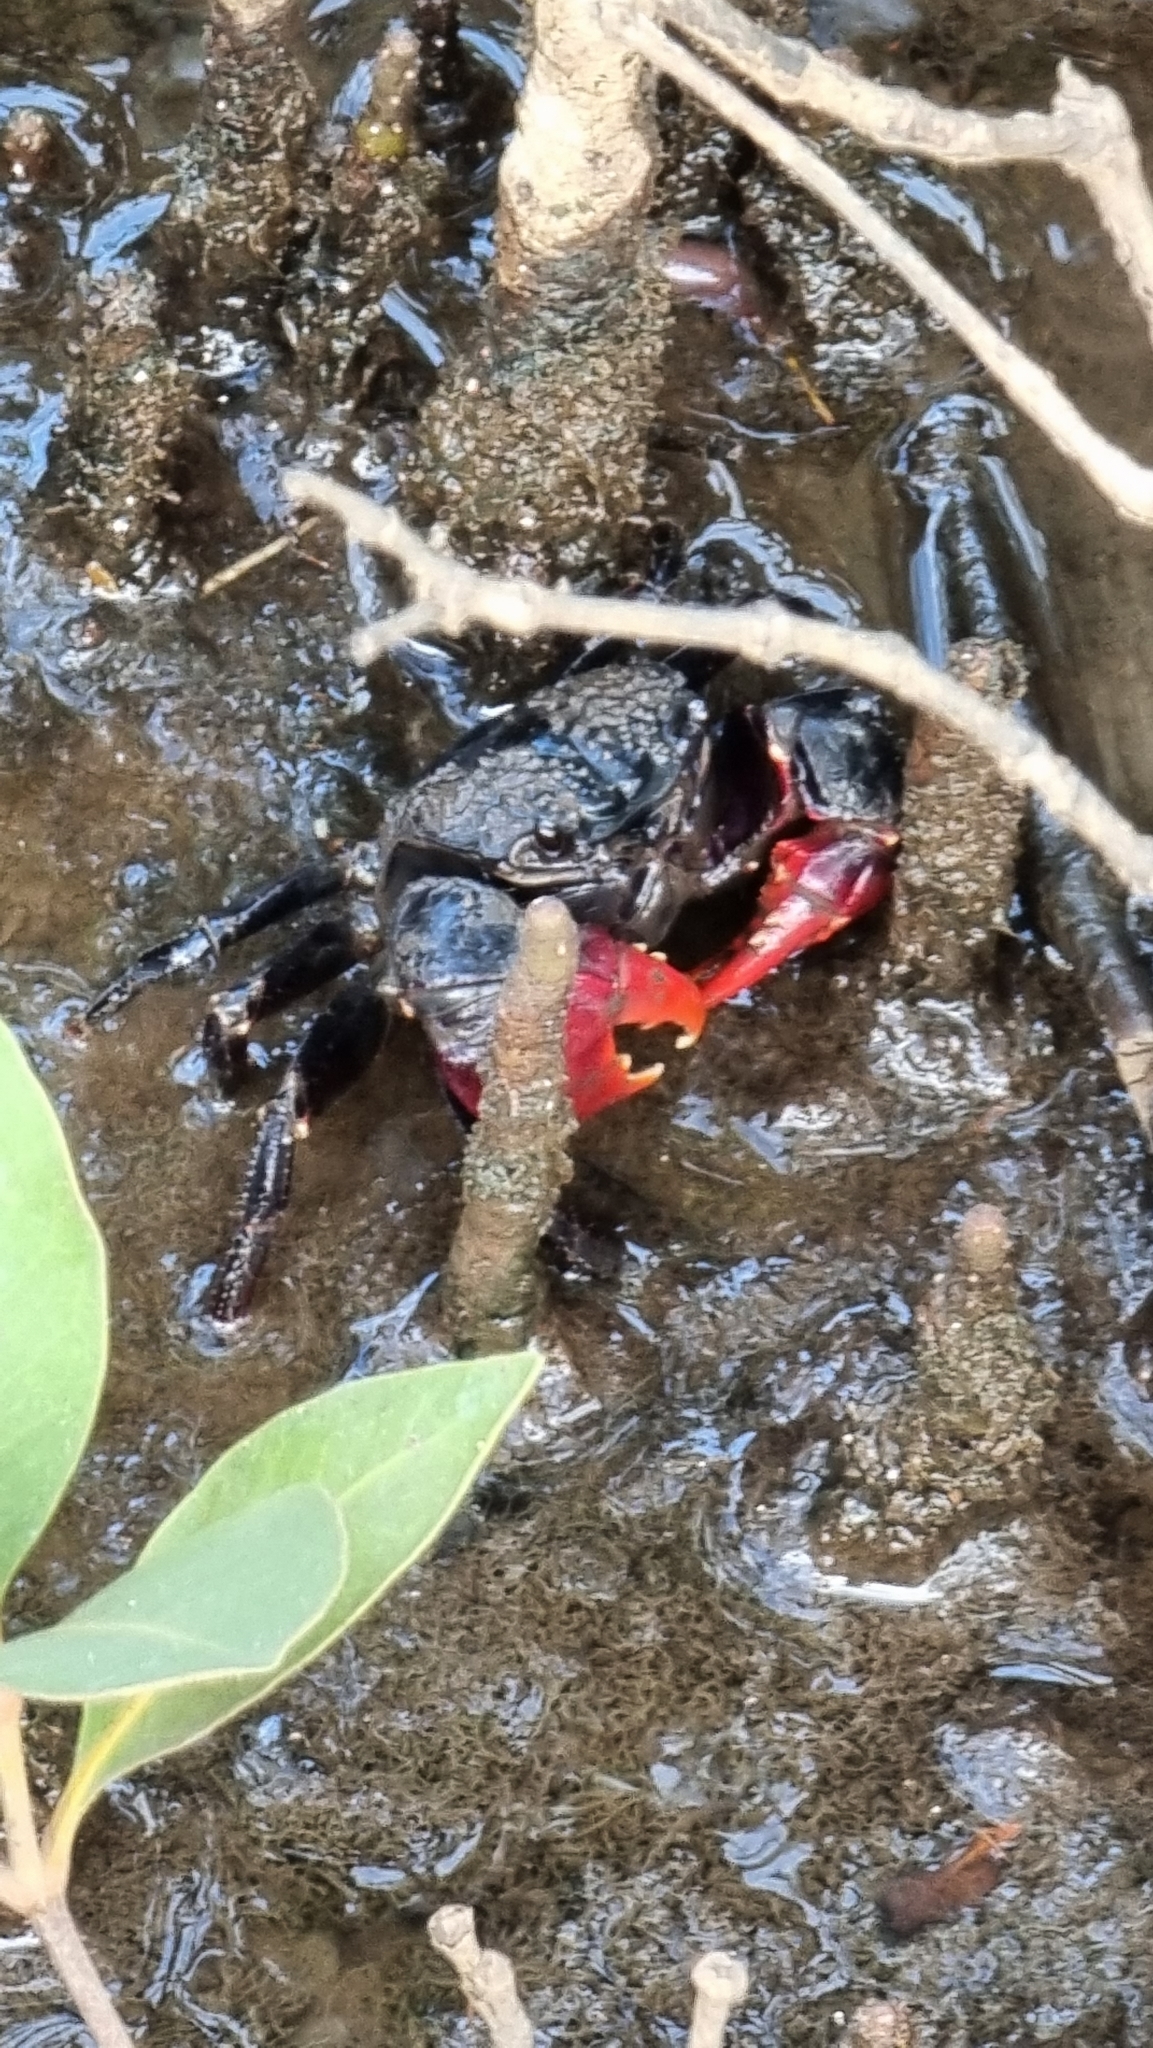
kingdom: Animalia
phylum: Arthropoda
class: Malacostraca
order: Decapoda
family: Sesarmidae
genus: Neosarmatium
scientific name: Neosarmatium trispinosum
